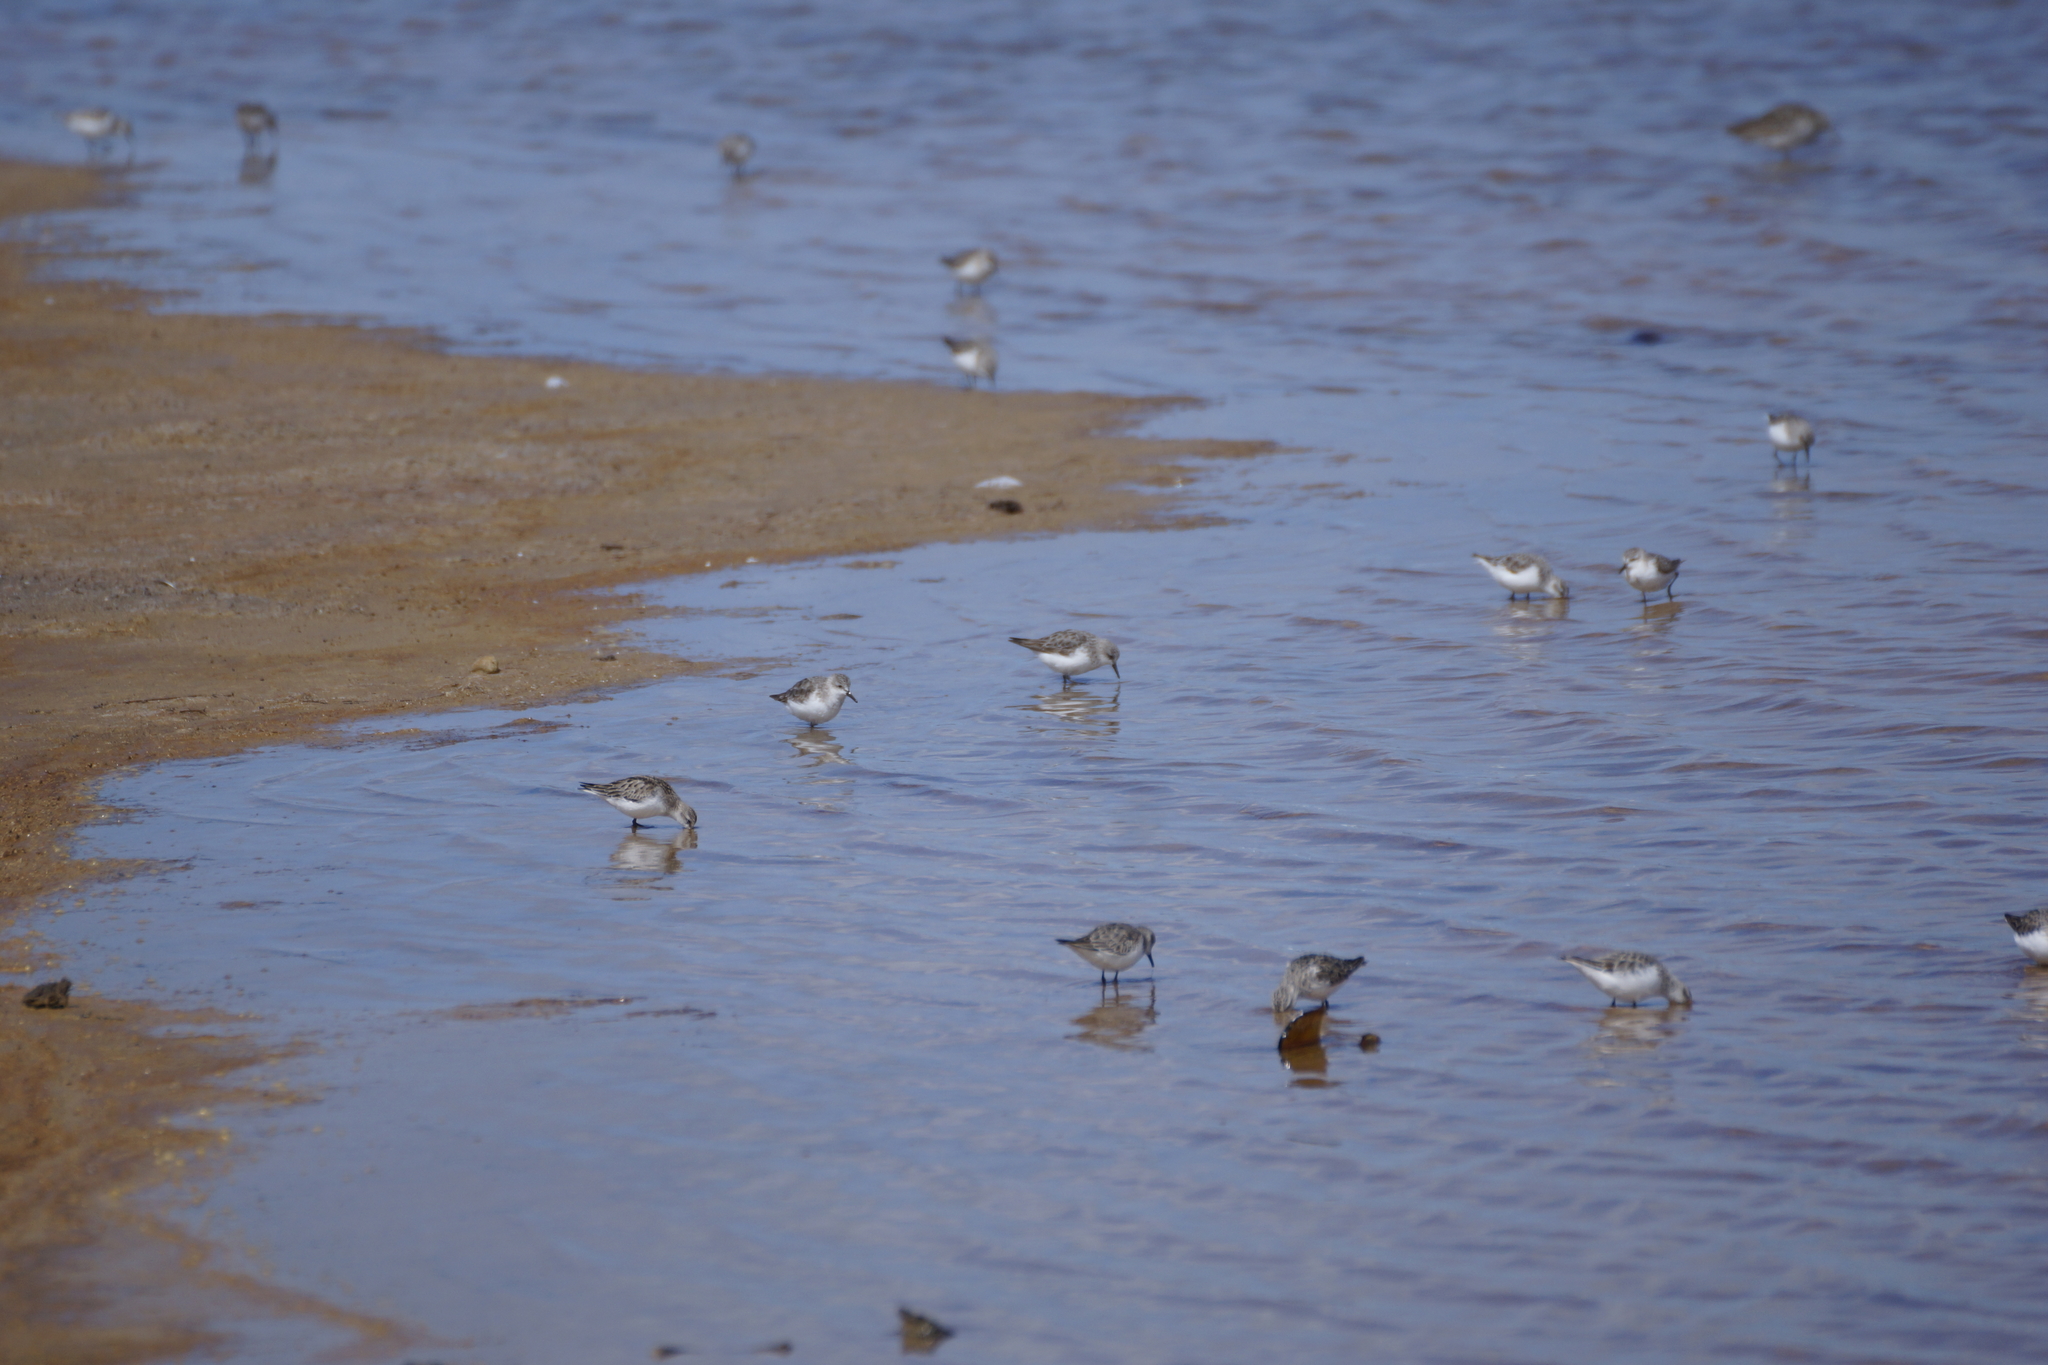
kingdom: Animalia
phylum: Chordata
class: Aves
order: Charadriiformes
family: Scolopacidae
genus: Calidris
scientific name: Calidris ruficollis
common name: Red-necked stint
